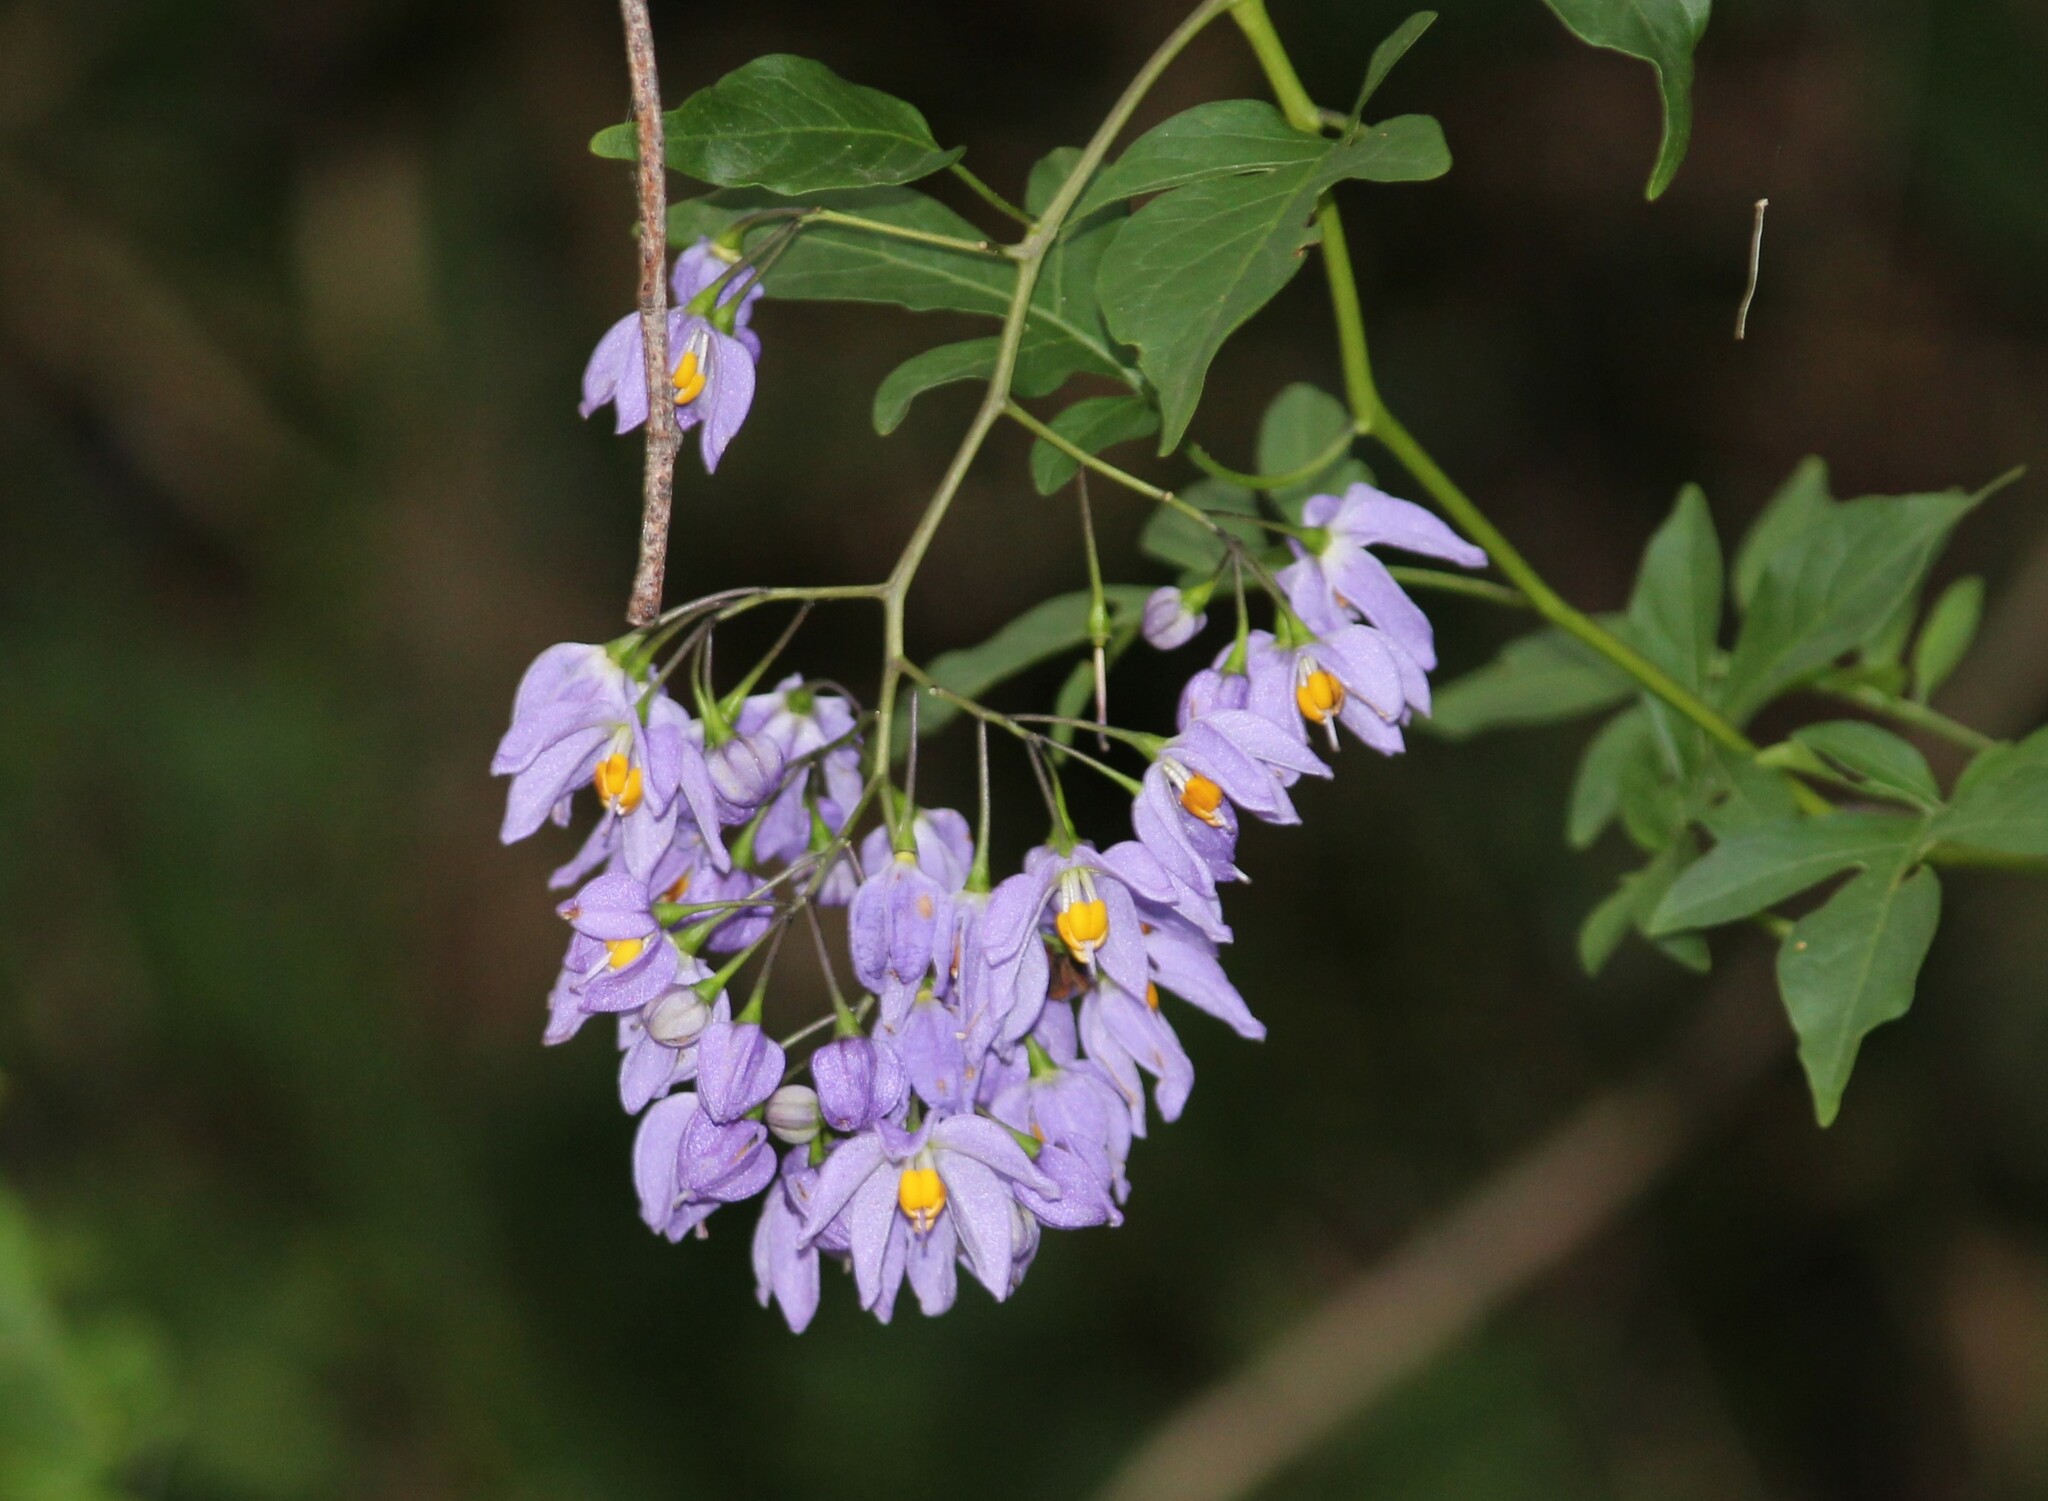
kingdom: Plantae
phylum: Tracheophyta
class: Magnoliopsida
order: Solanales
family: Solanaceae
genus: Solanum
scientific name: Solanum seaforthianum
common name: Brazilian nightshade
